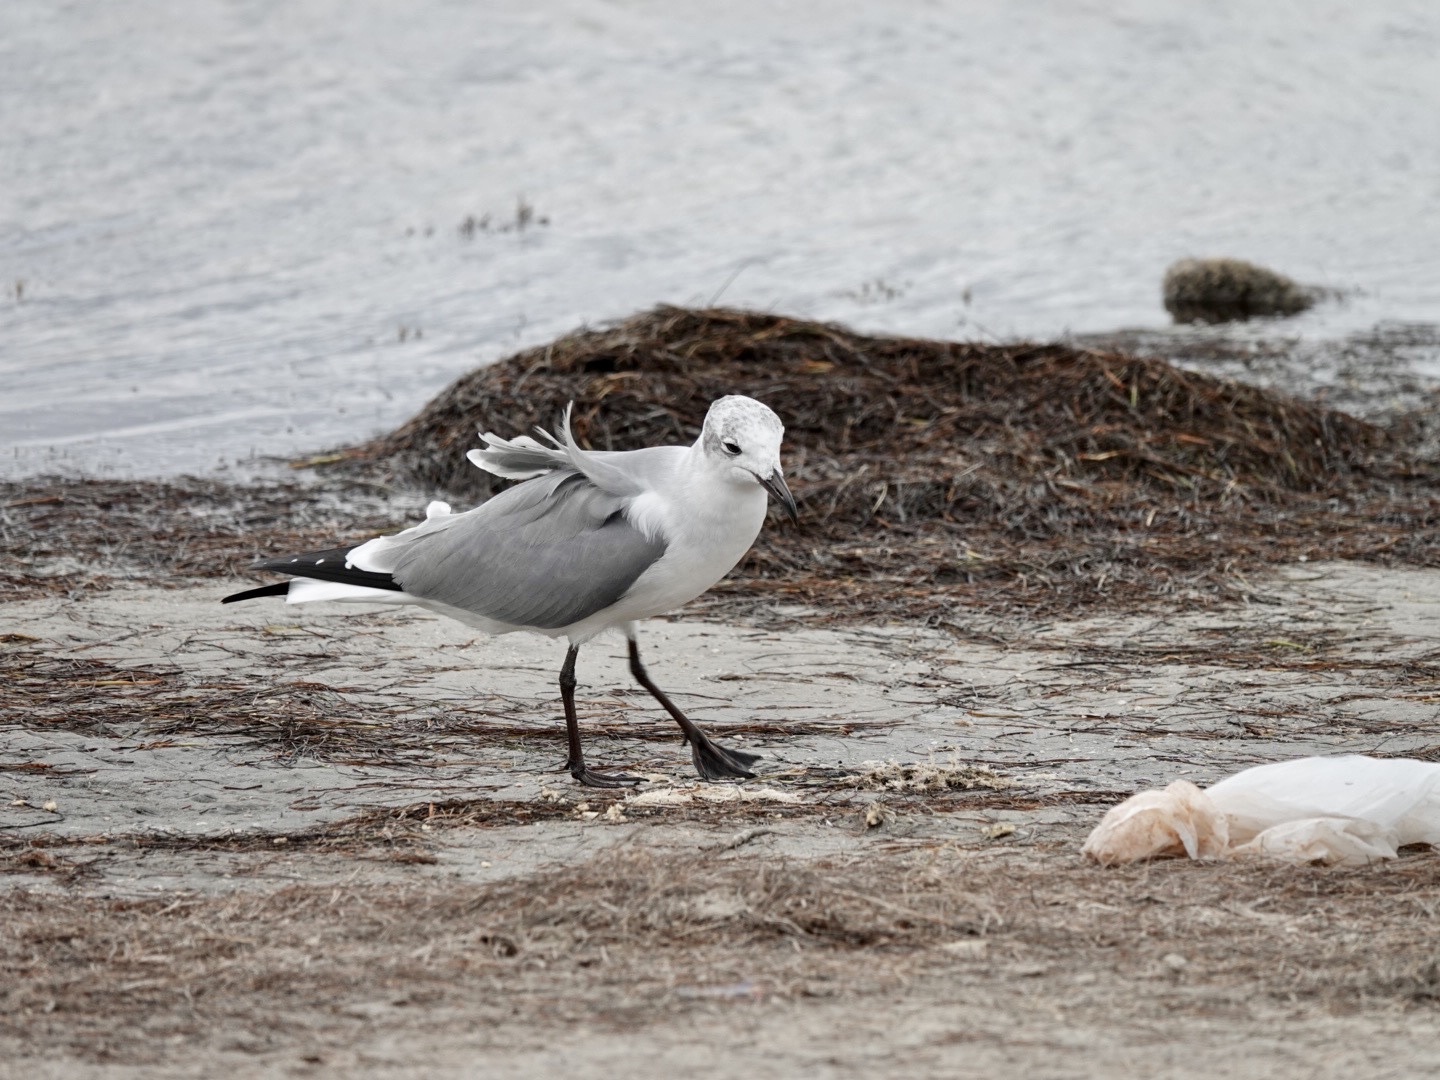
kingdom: Animalia
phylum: Chordata
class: Aves
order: Charadriiformes
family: Laridae
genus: Leucophaeus
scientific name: Leucophaeus atricilla
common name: Laughing gull
